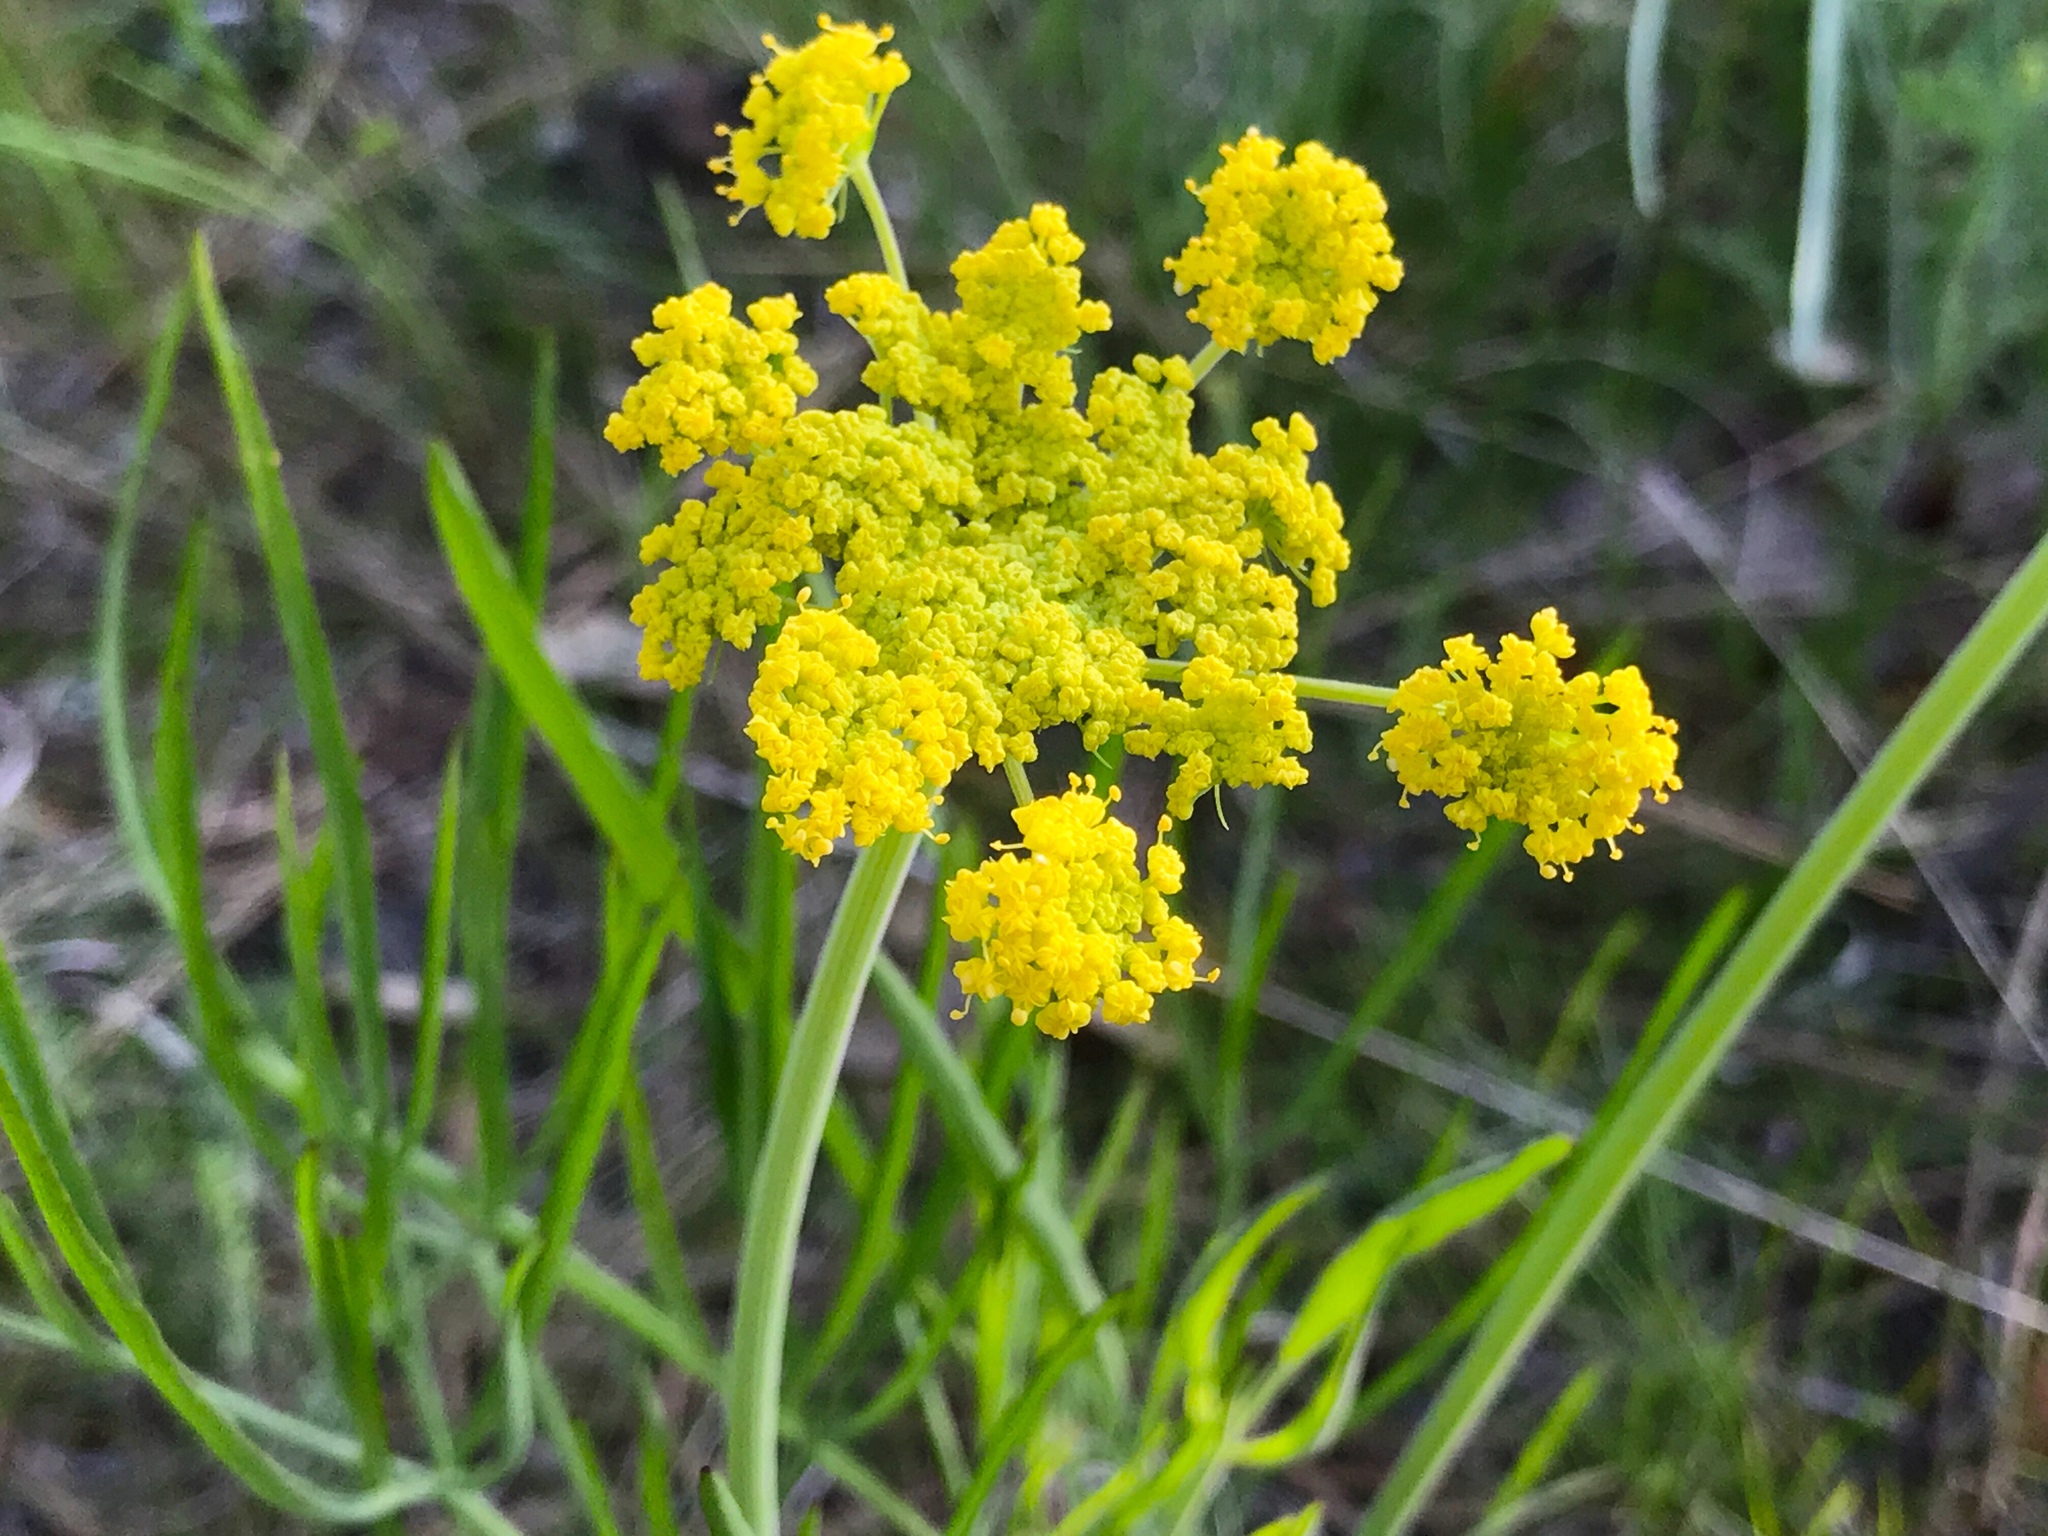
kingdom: Plantae
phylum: Tracheophyta
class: Magnoliopsida
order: Apiales
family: Apiaceae
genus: Lomatium
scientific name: Lomatium triternatum
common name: Ternate lomatium
